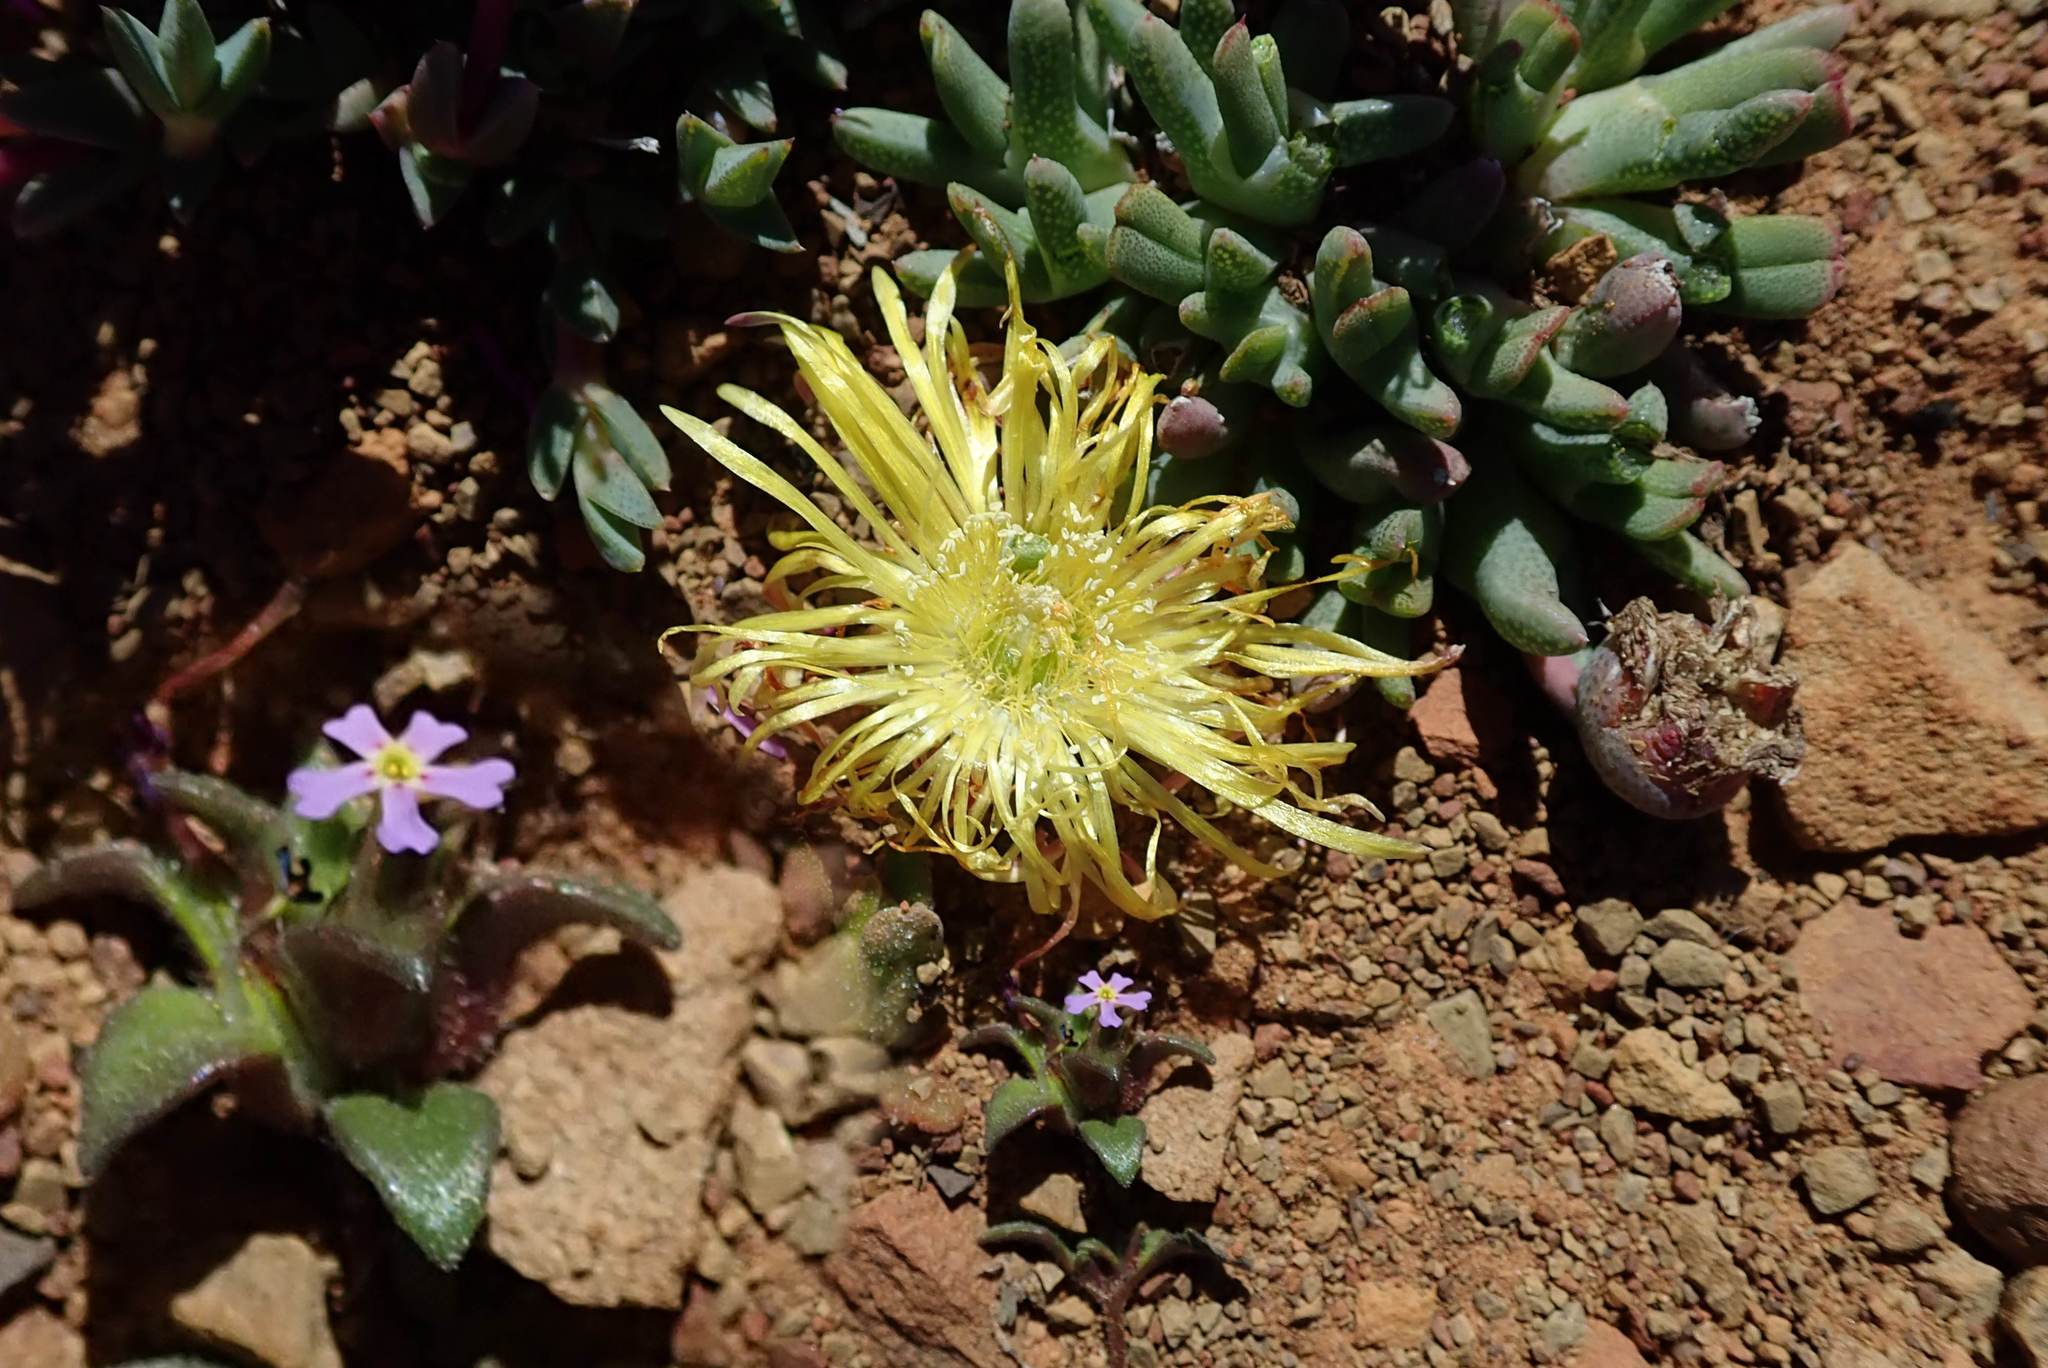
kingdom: Plantae
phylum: Tracheophyta
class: Magnoliopsida
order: Lamiales
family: Scrophulariaceae
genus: Zaluzianskya
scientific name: Zaluzianskya minima
